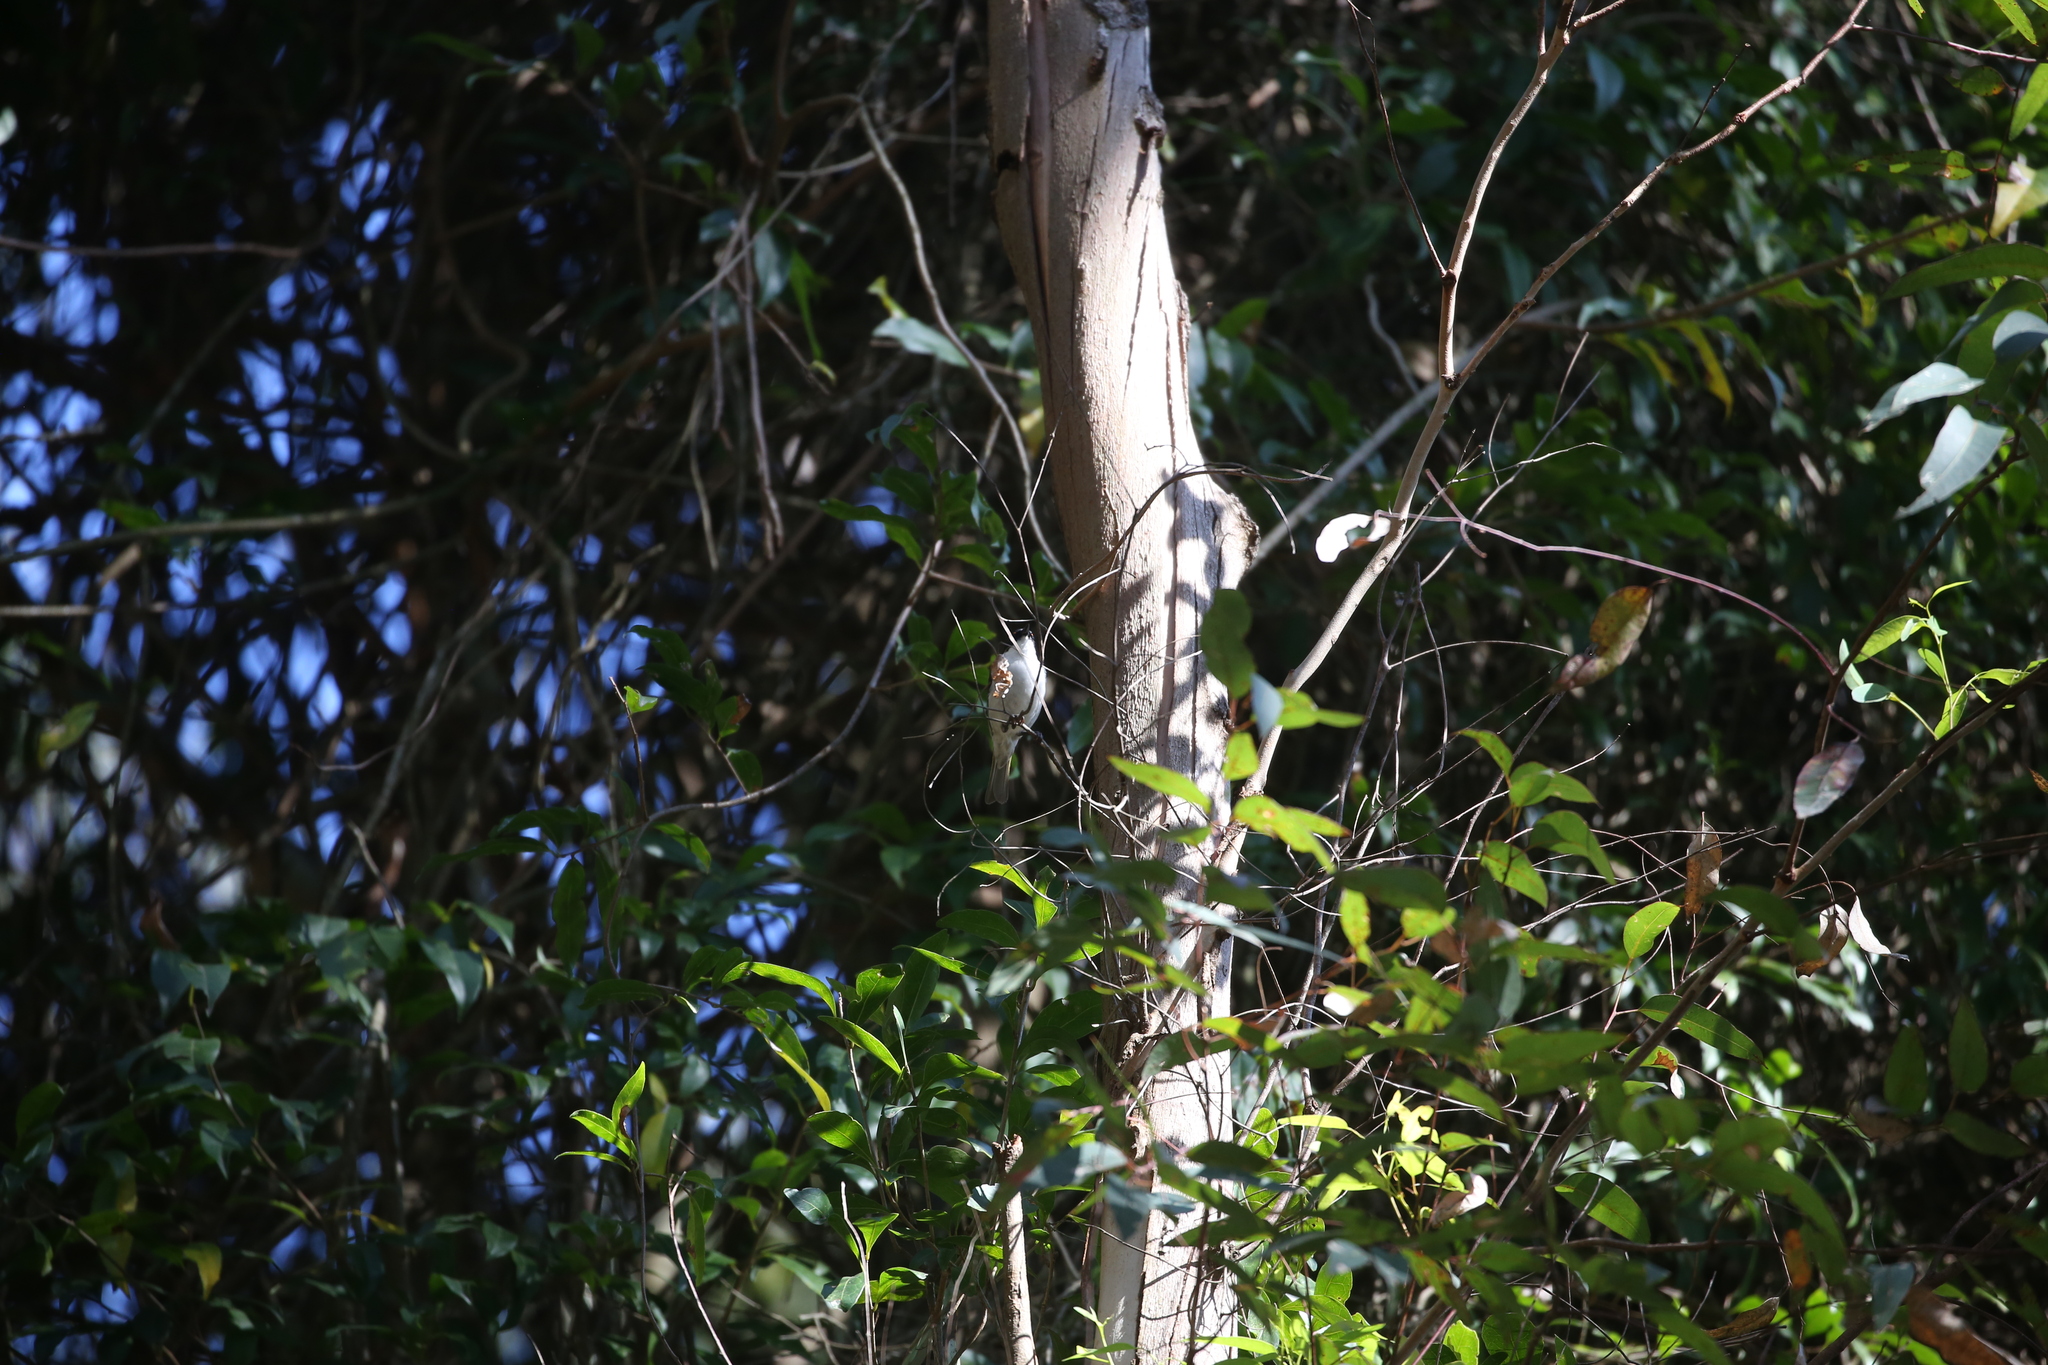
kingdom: Animalia
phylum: Chordata
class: Aves
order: Passeriformes
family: Meliphagidae
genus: Melithreptus
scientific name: Melithreptus lunatus
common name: White-naped honeyeater
